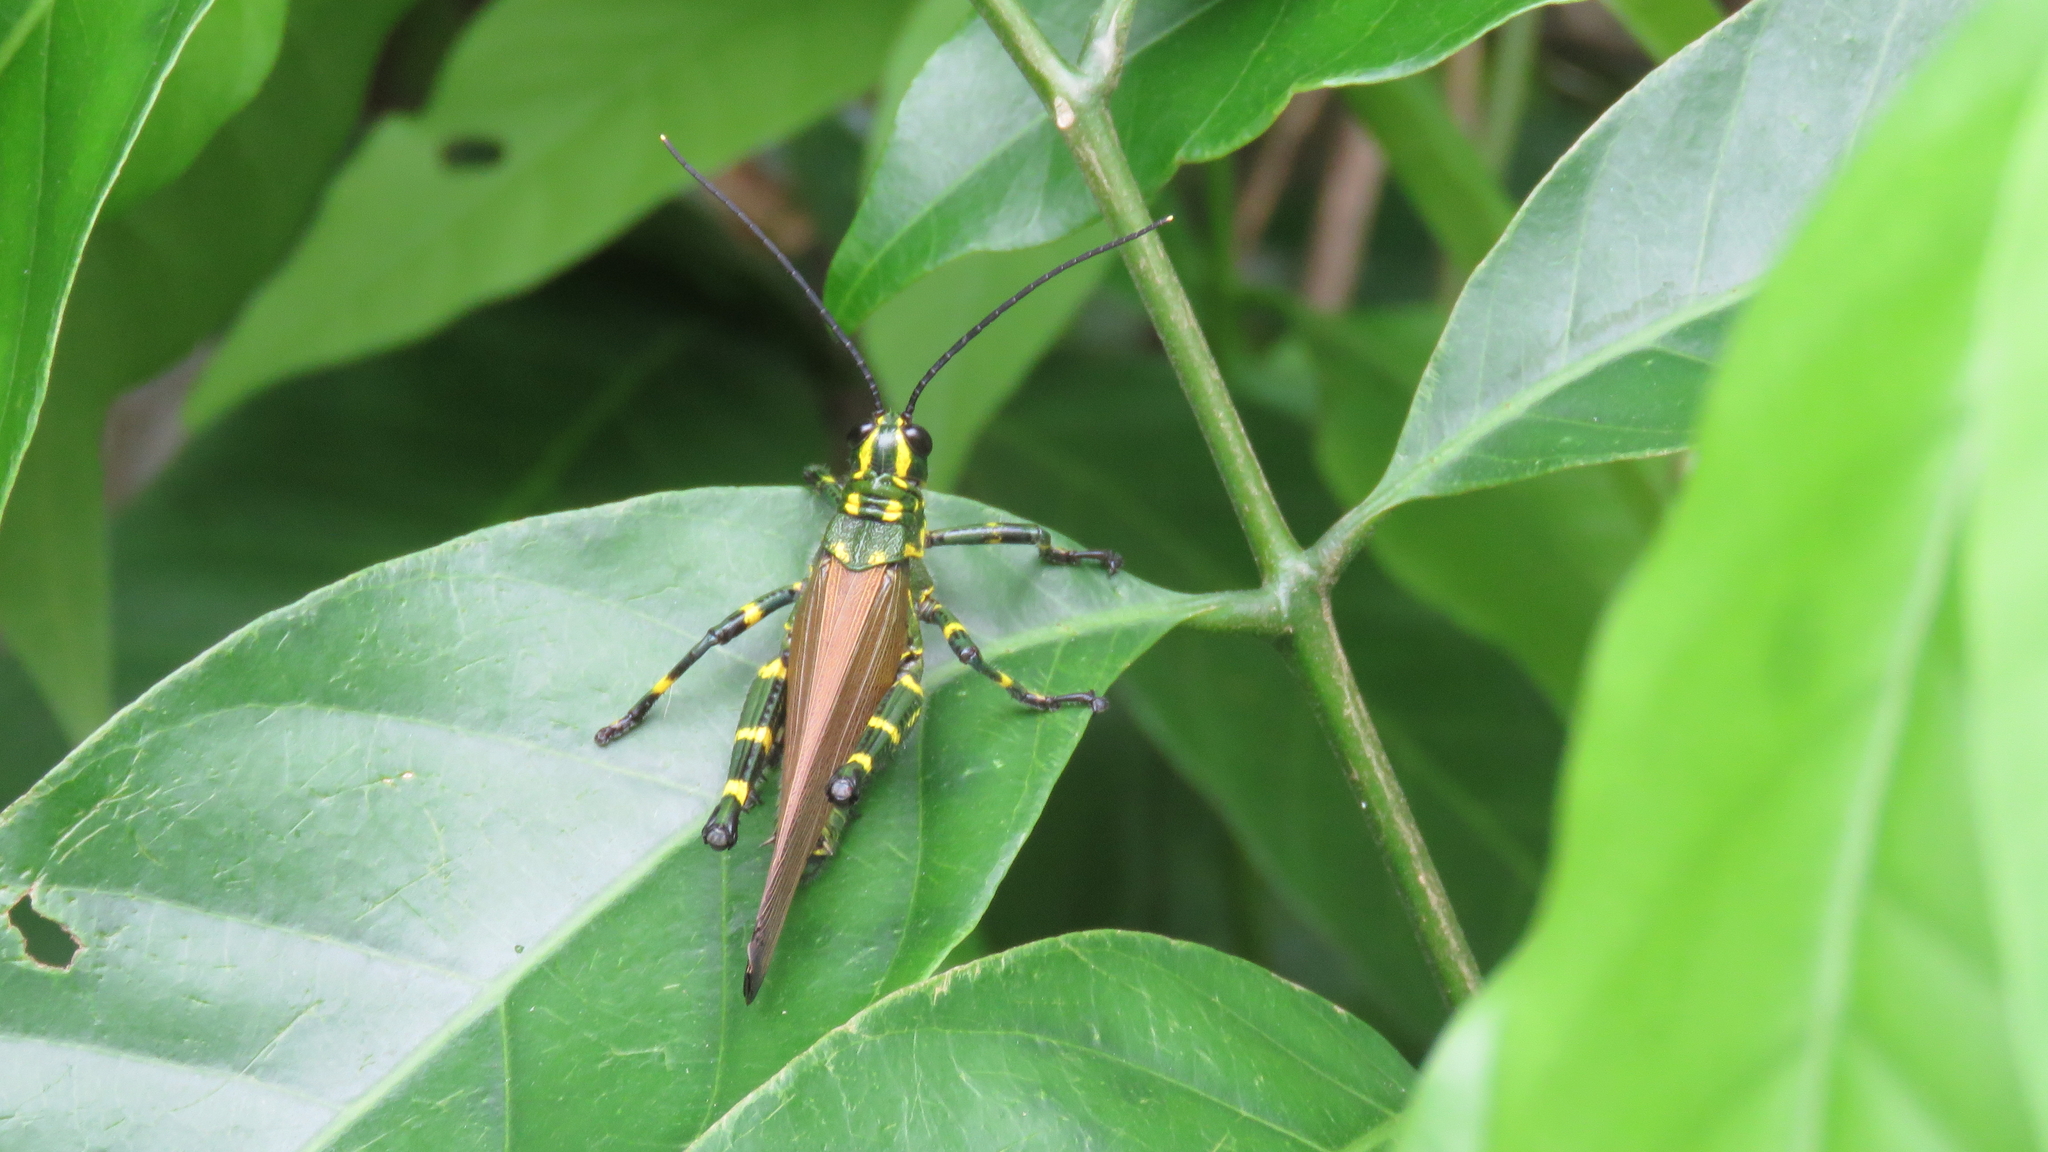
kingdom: Animalia
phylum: Arthropoda
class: Insecta
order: Orthoptera
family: Romaleidae
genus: Chromacris
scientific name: Chromacris speciosa
